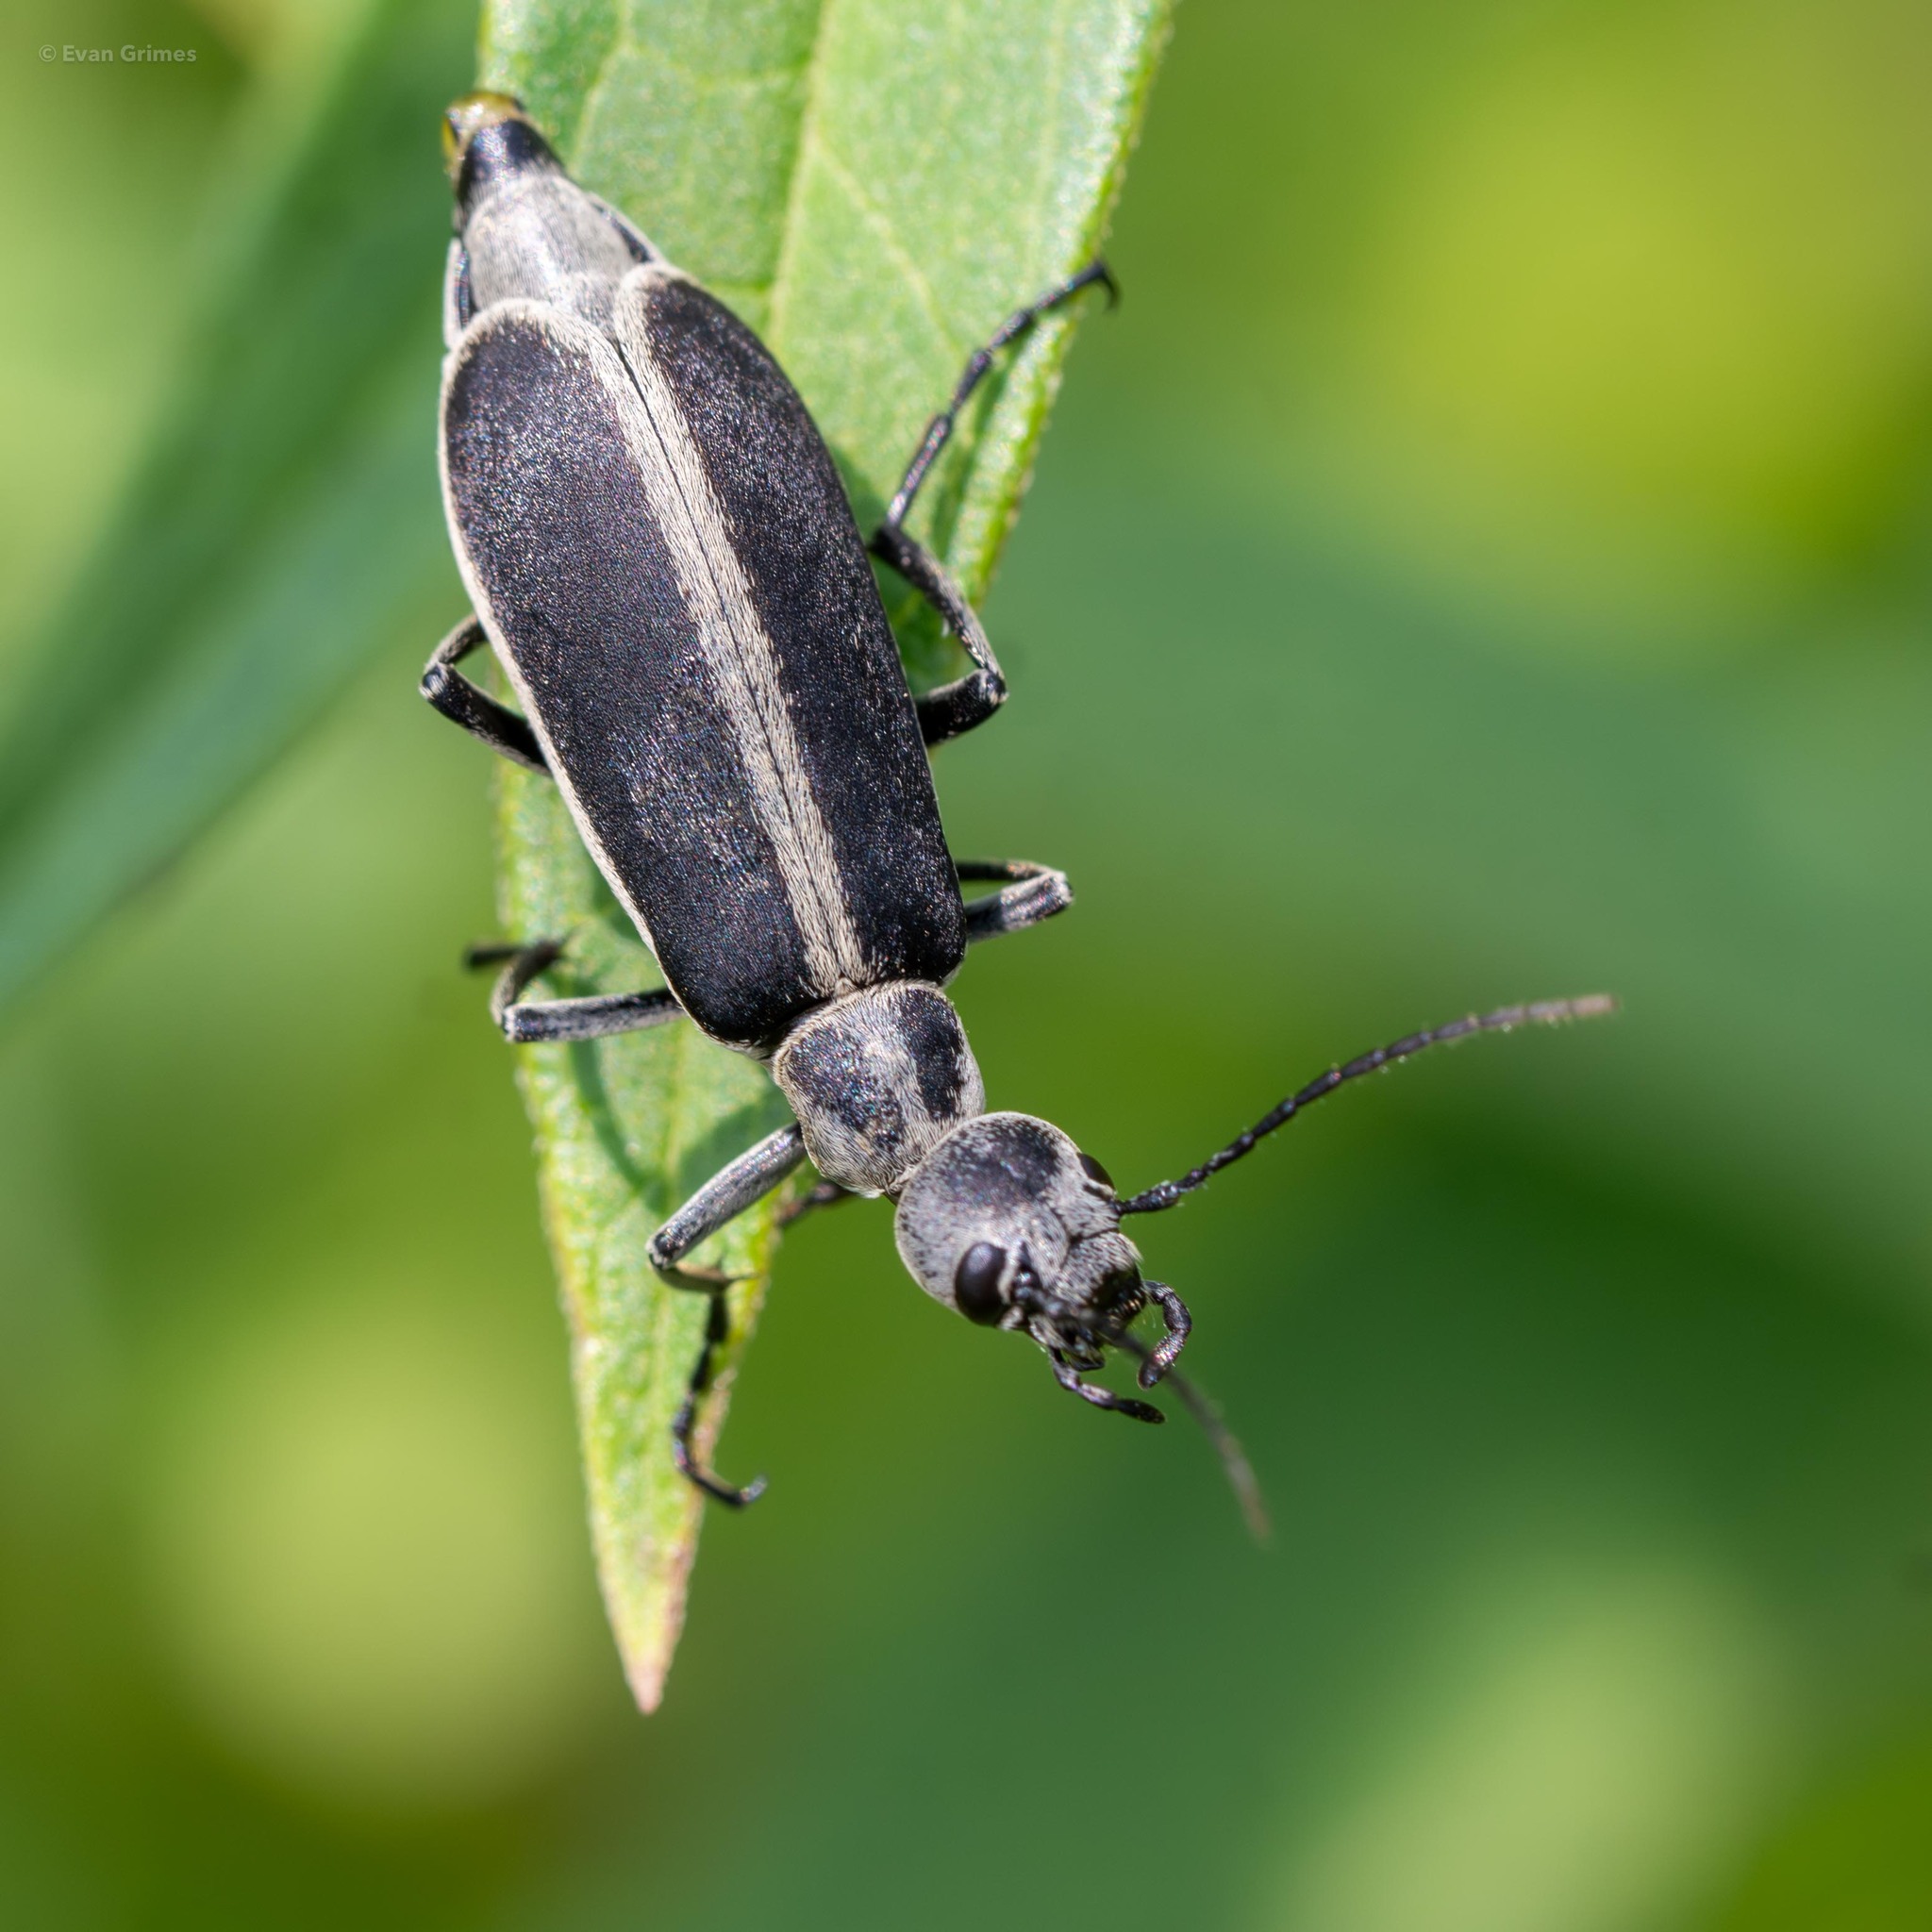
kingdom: Animalia
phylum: Arthropoda
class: Insecta
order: Coleoptera
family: Meloidae
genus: Epicauta
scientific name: Epicauta funebris
